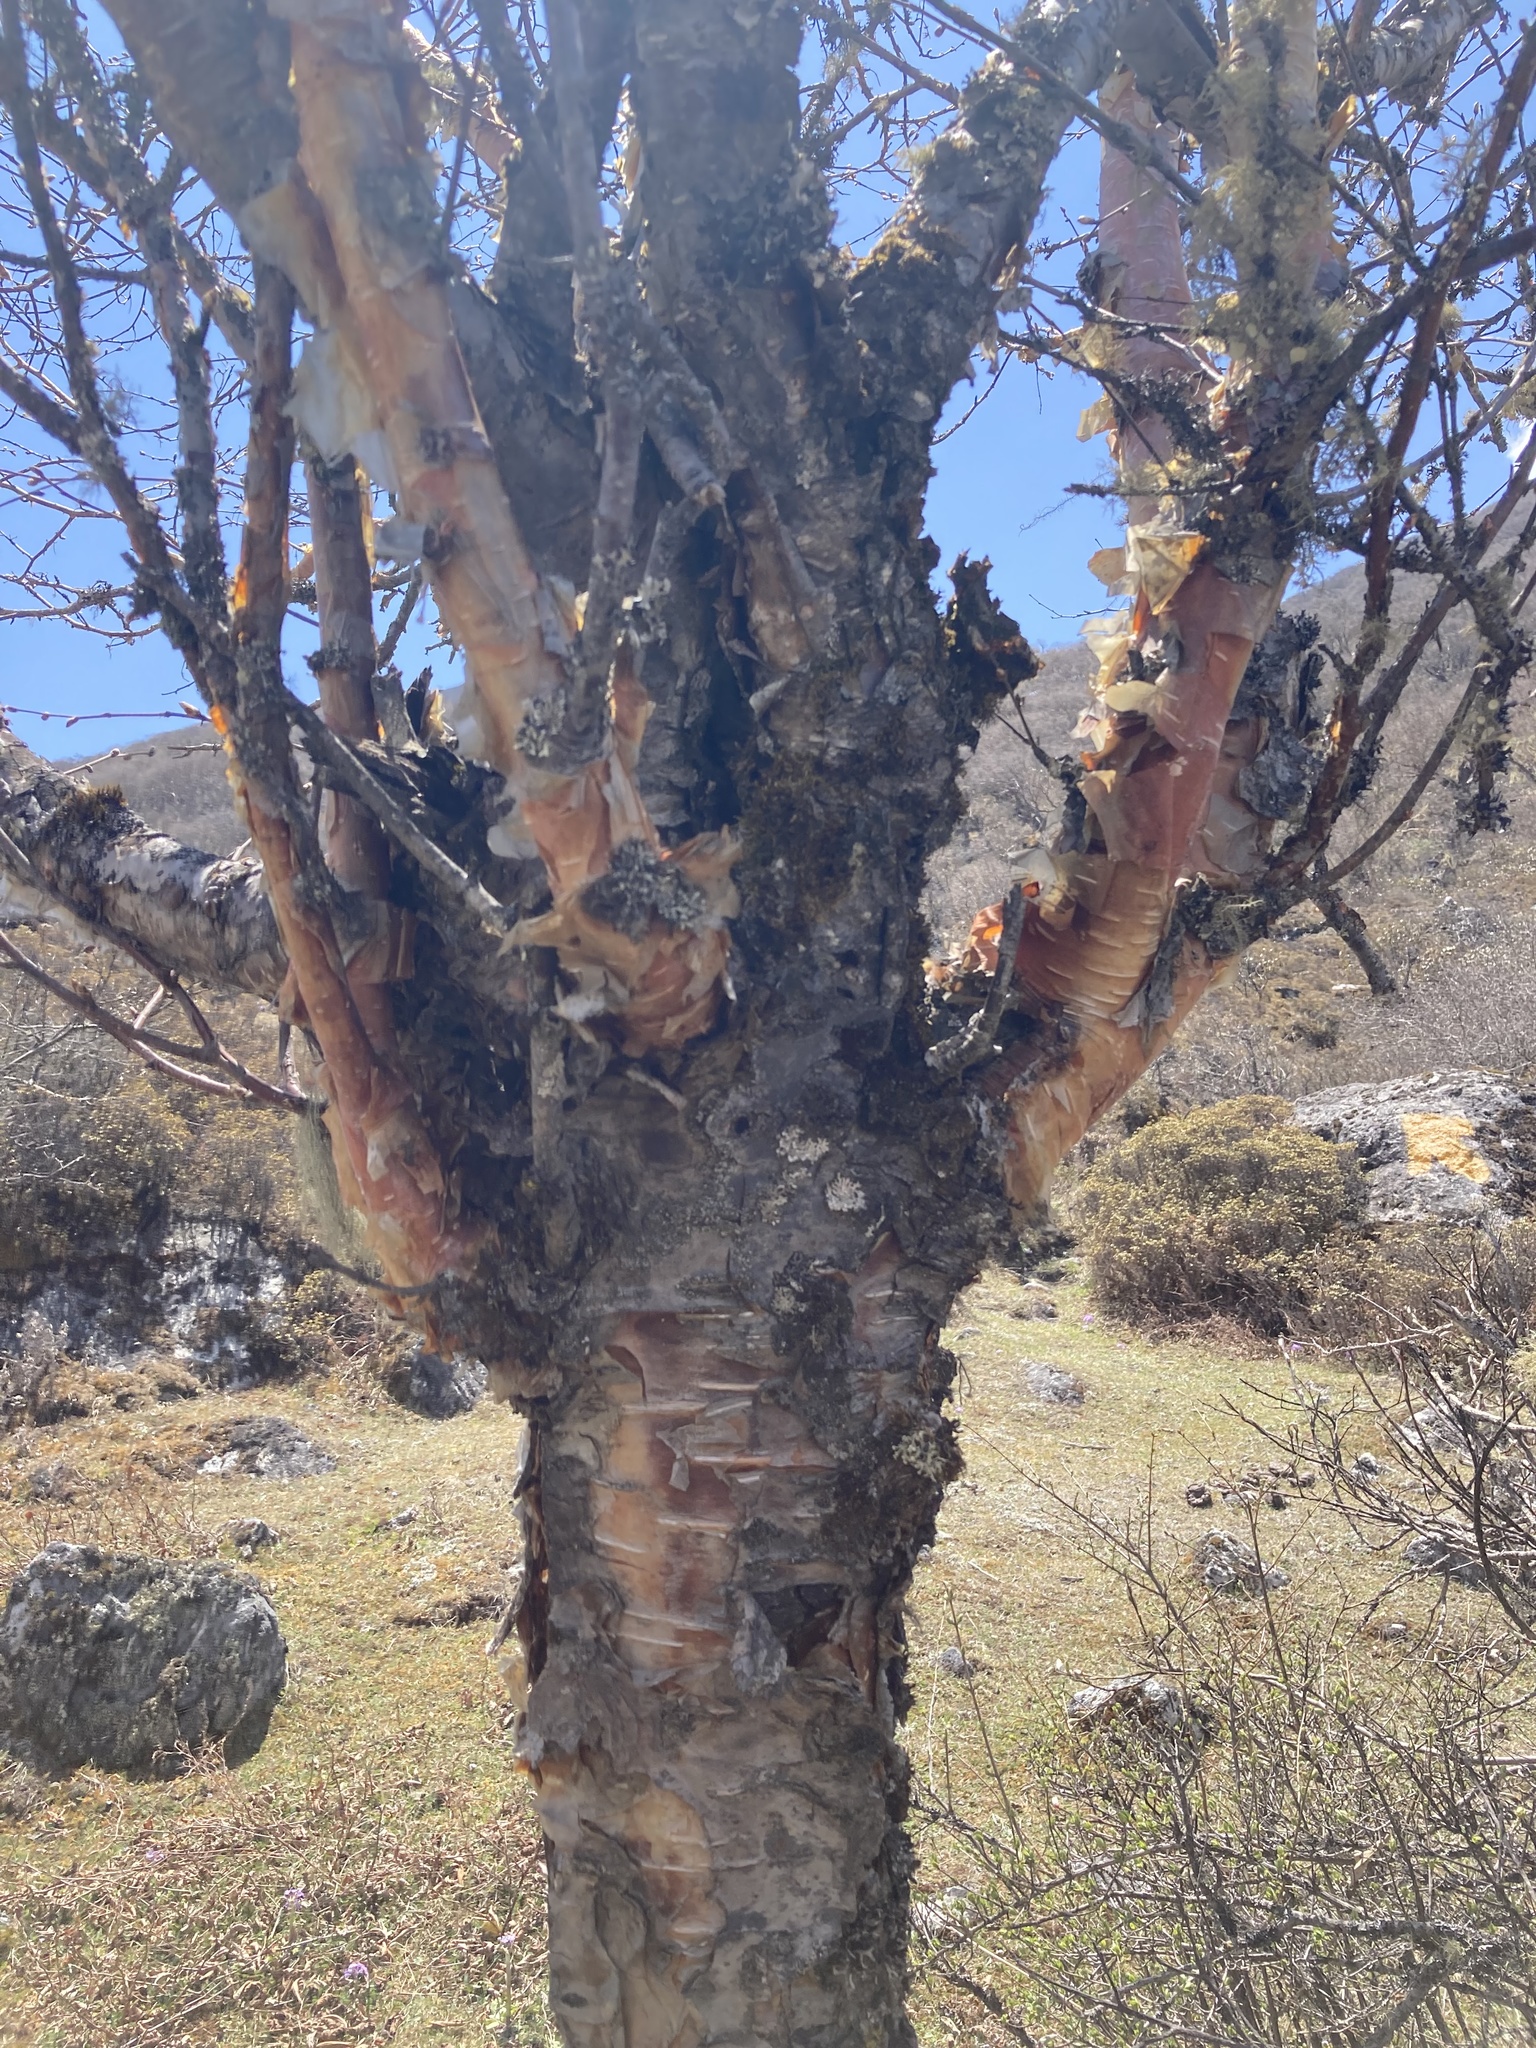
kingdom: Plantae
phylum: Tracheophyta
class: Magnoliopsida
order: Fagales
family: Betulaceae
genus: Betula
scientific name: Betula utilis
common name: Himalayan birch
